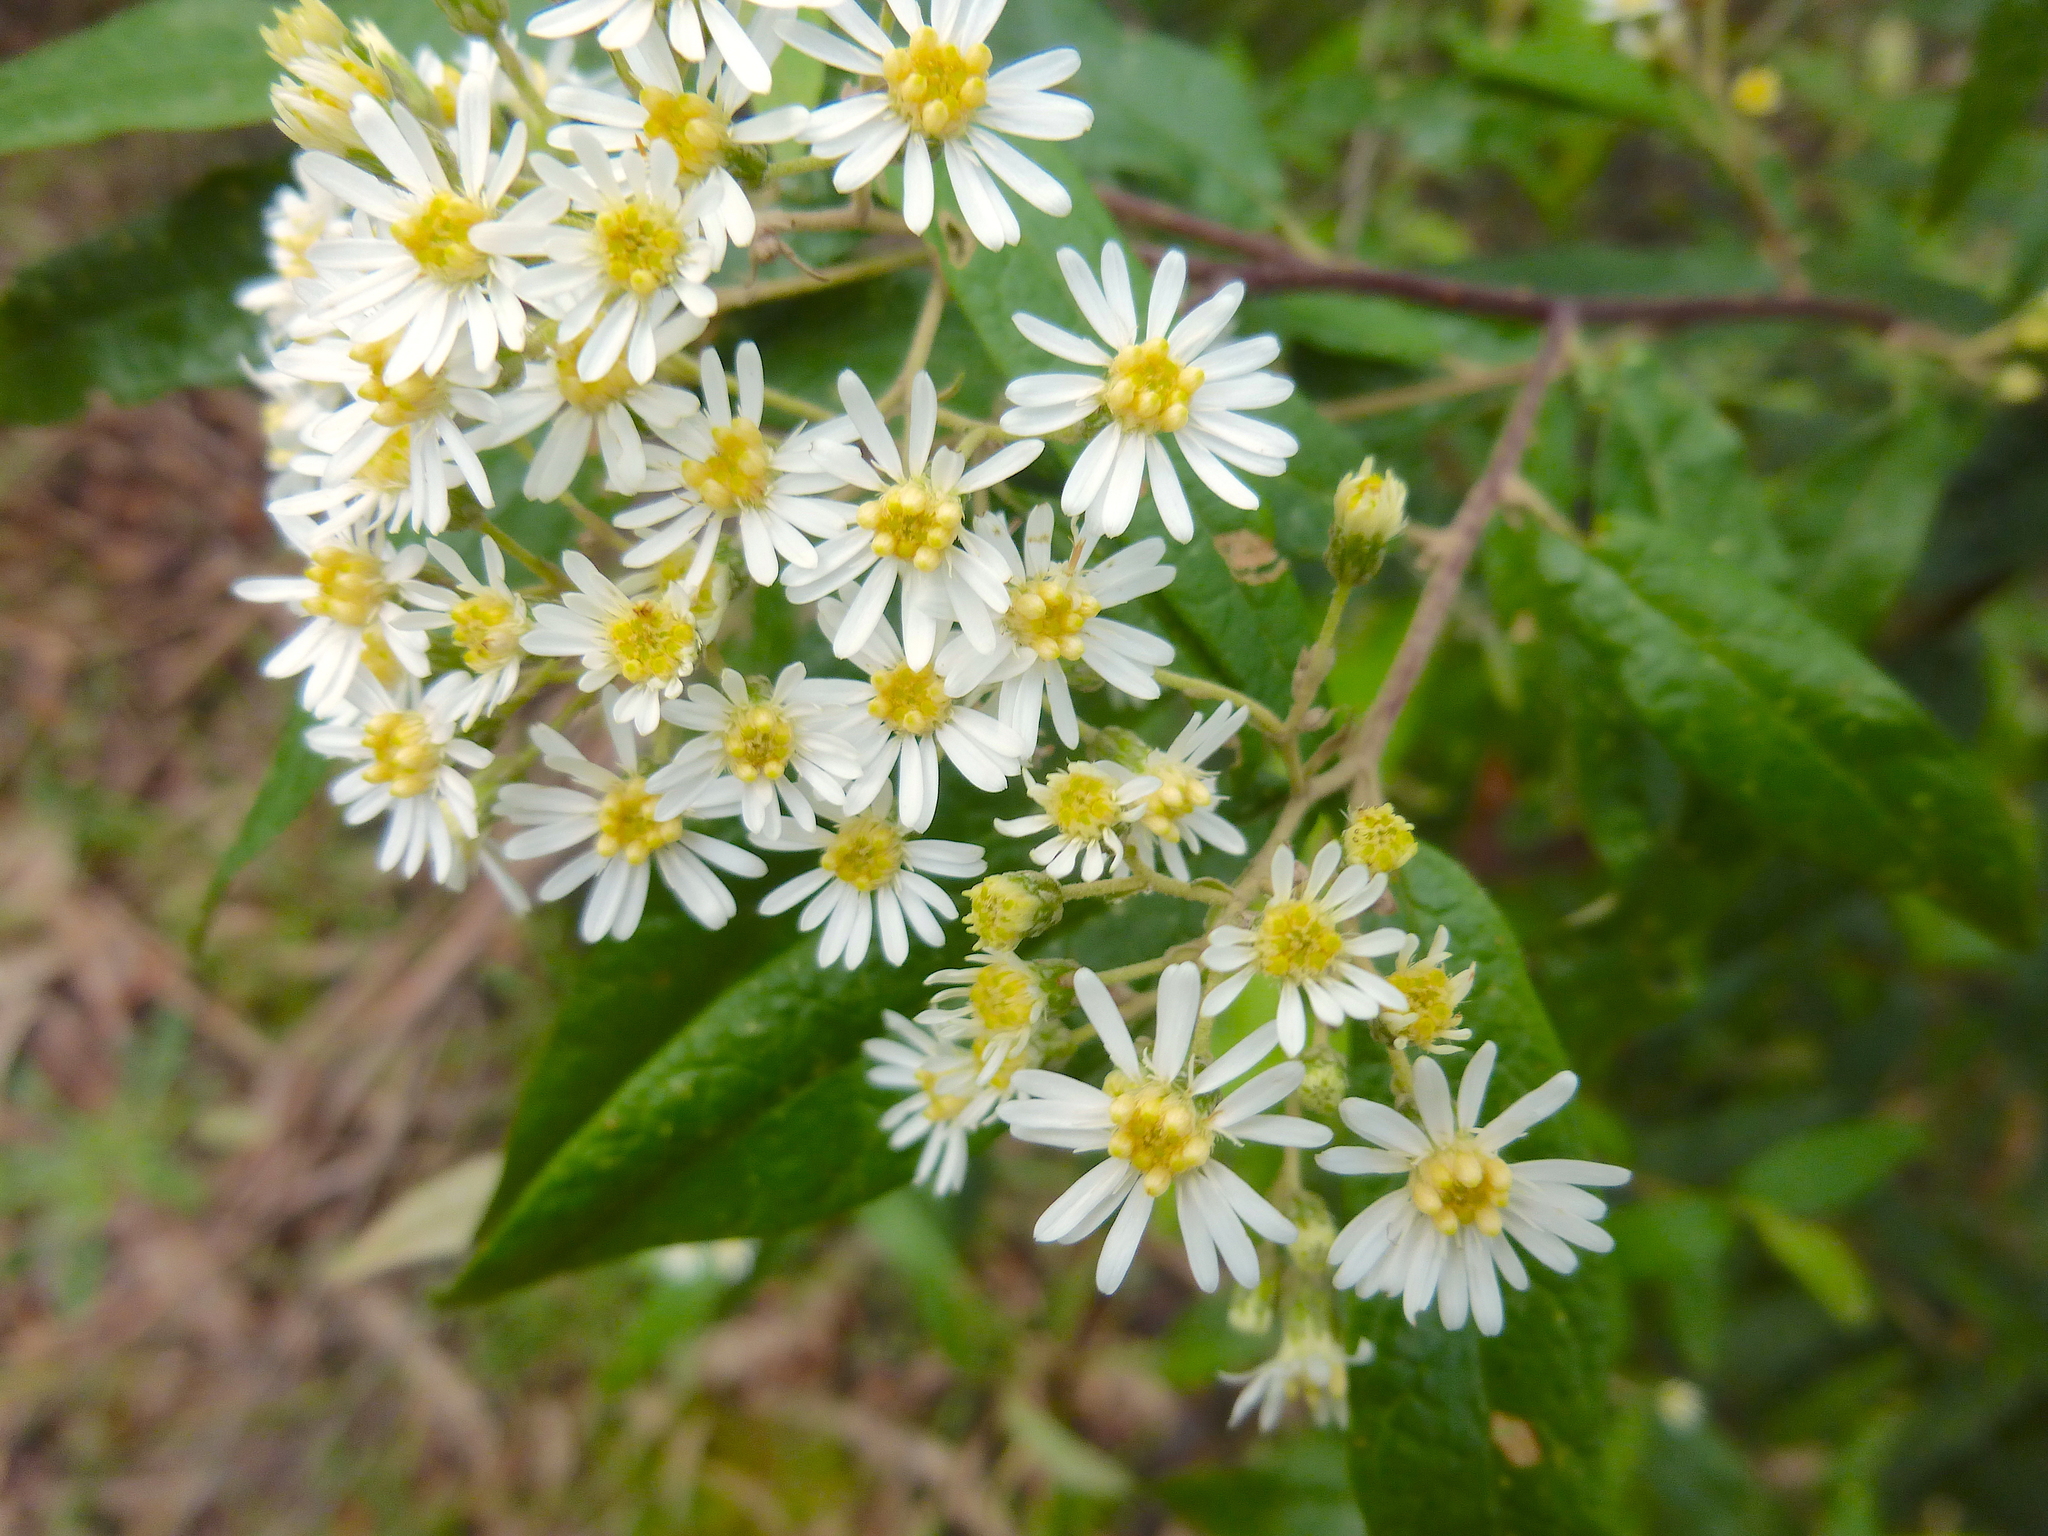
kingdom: Plantae
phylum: Tracheophyta
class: Magnoliopsida
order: Asterales
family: Asteraceae
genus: Olearia
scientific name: Olearia lirata
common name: Dusty daisybush
